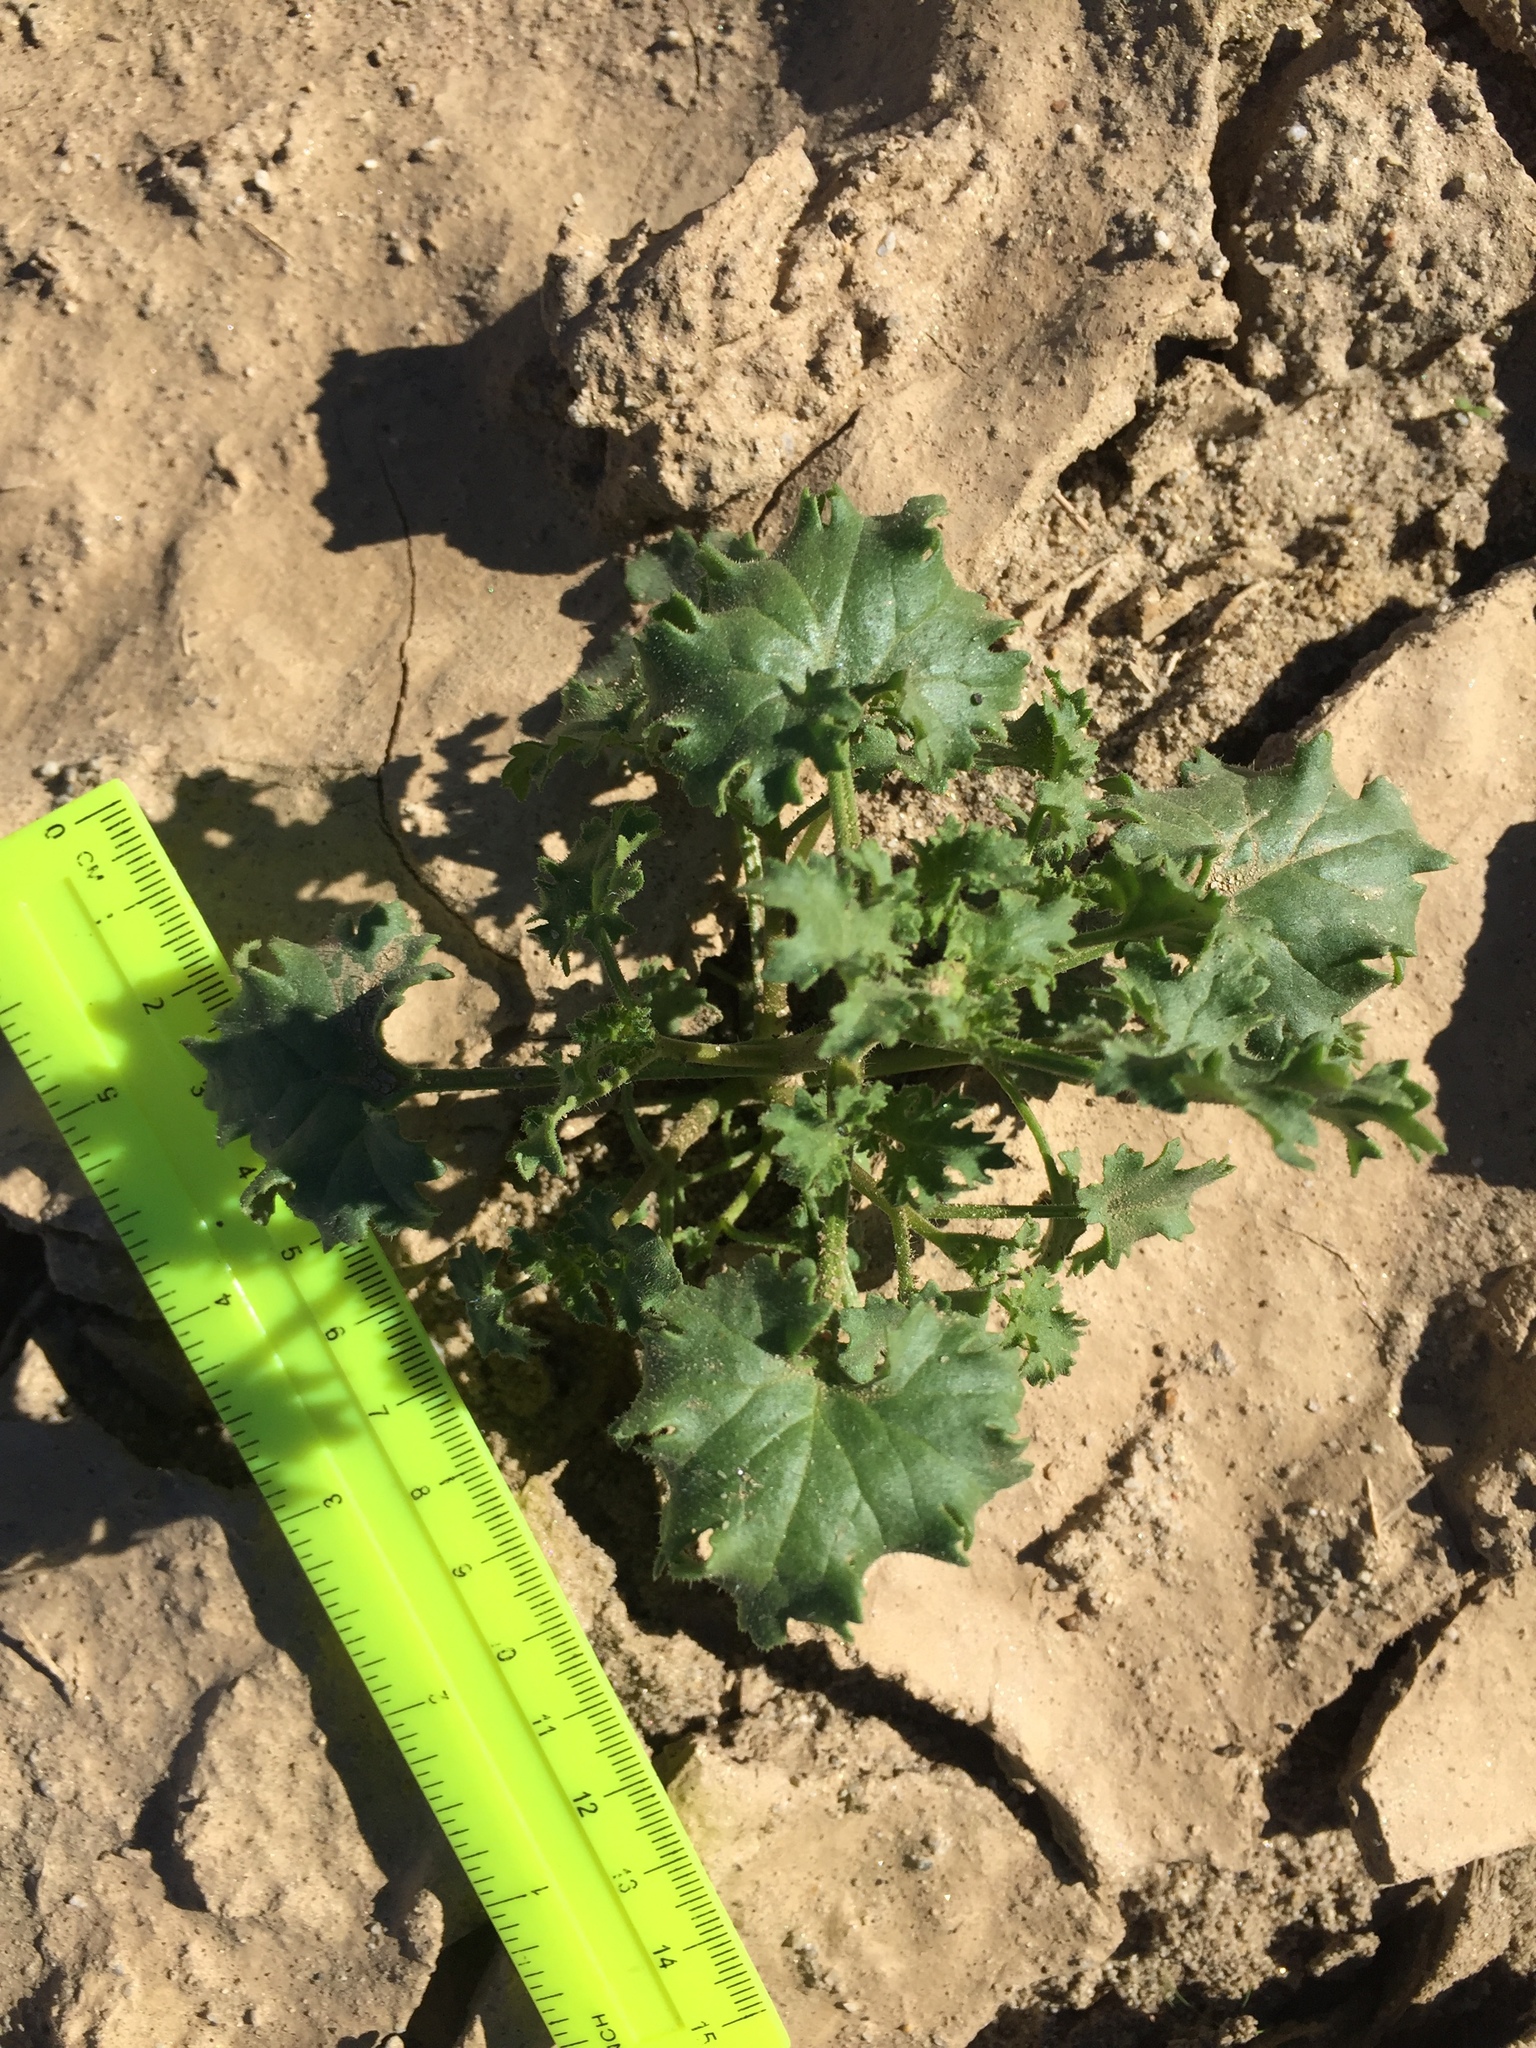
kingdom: Plantae
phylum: Tracheophyta
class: Magnoliopsida
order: Asterales
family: Asteraceae
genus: Laphamia
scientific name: Laphamia emoryi
